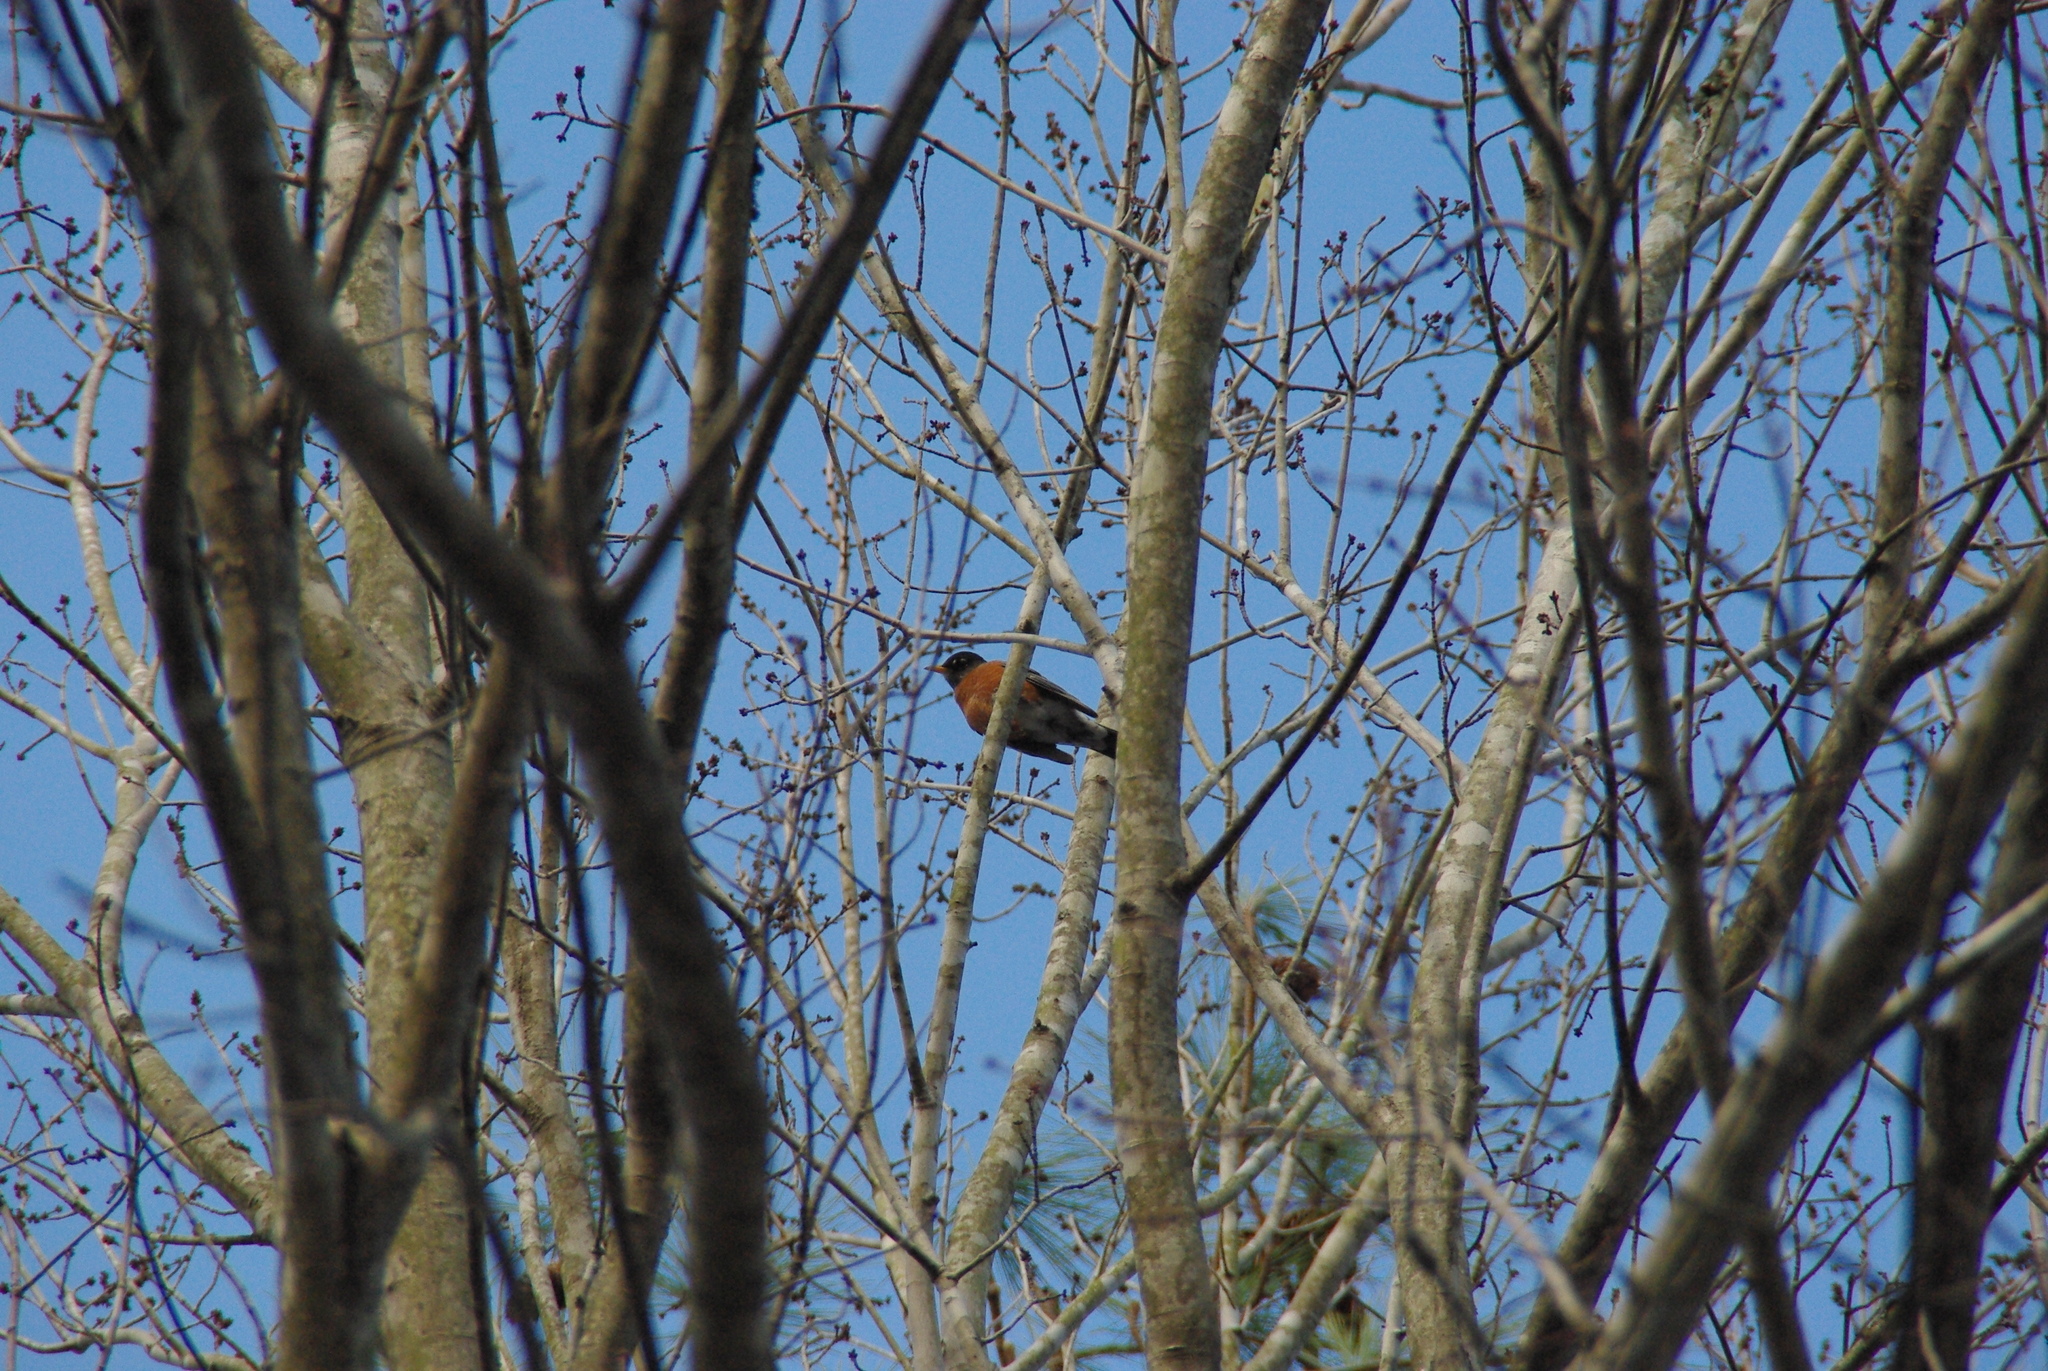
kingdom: Animalia
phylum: Chordata
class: Aves
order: Passeriformes
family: Turdidae
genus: Turdus
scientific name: Turdus migratorius
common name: American robin
